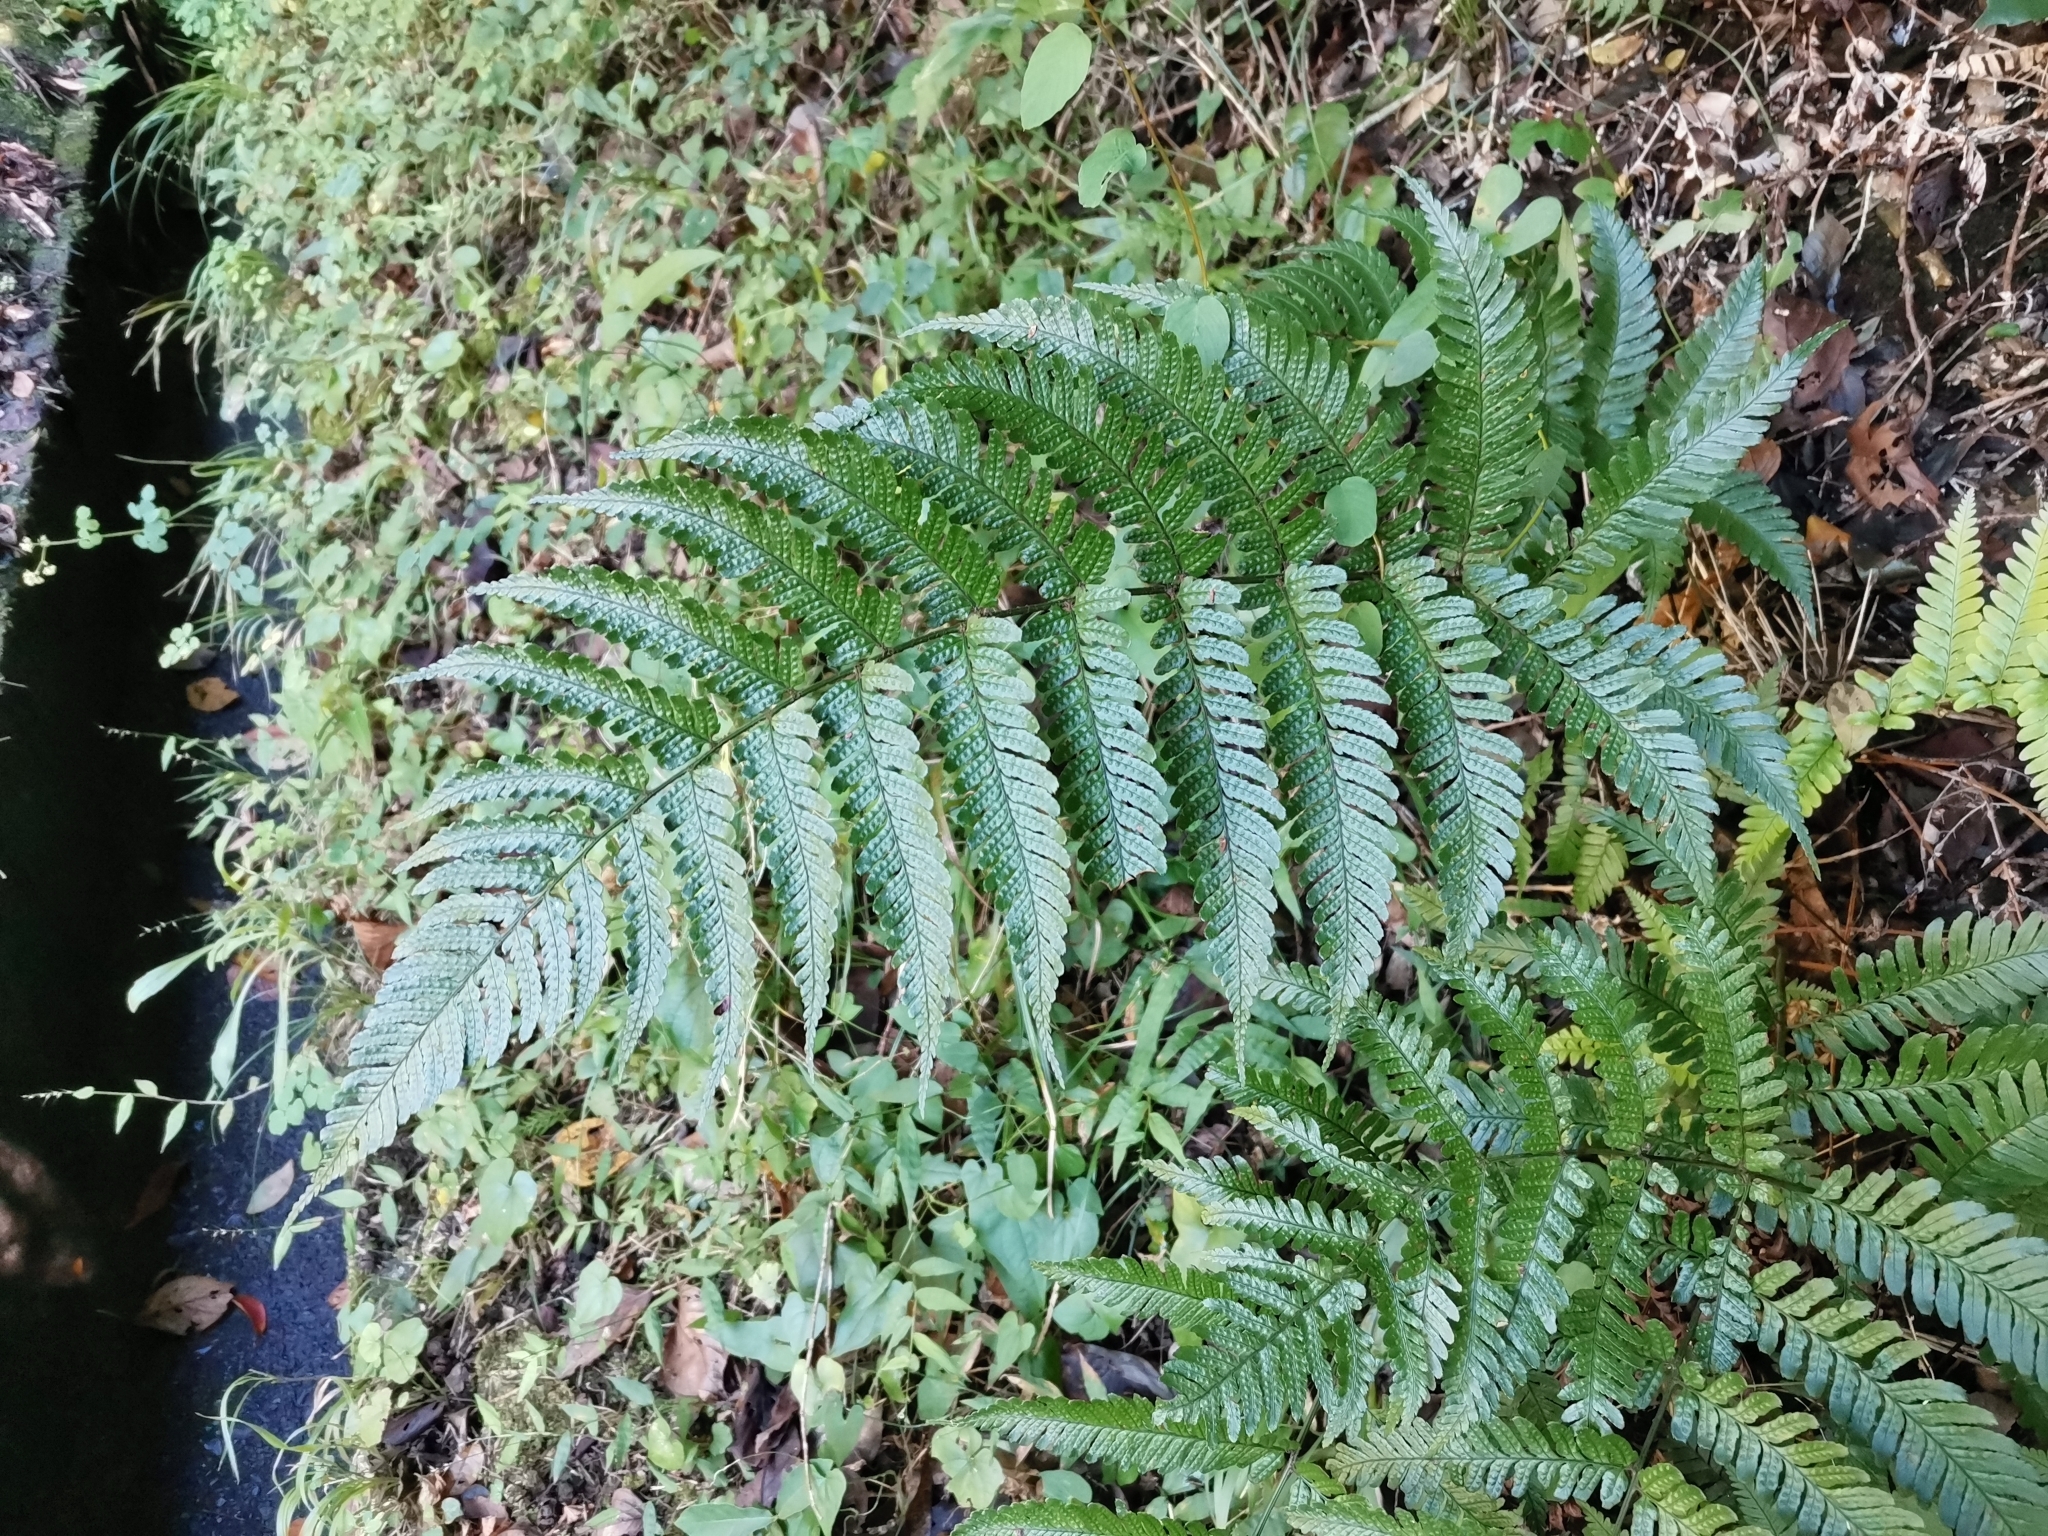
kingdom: Plantae
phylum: Tracheophyta
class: Polypodiopsida
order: Polypodiales
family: Dryopteridaceae
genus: Dryopteris
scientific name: Dryopteris erythrosora
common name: Autumn fern
